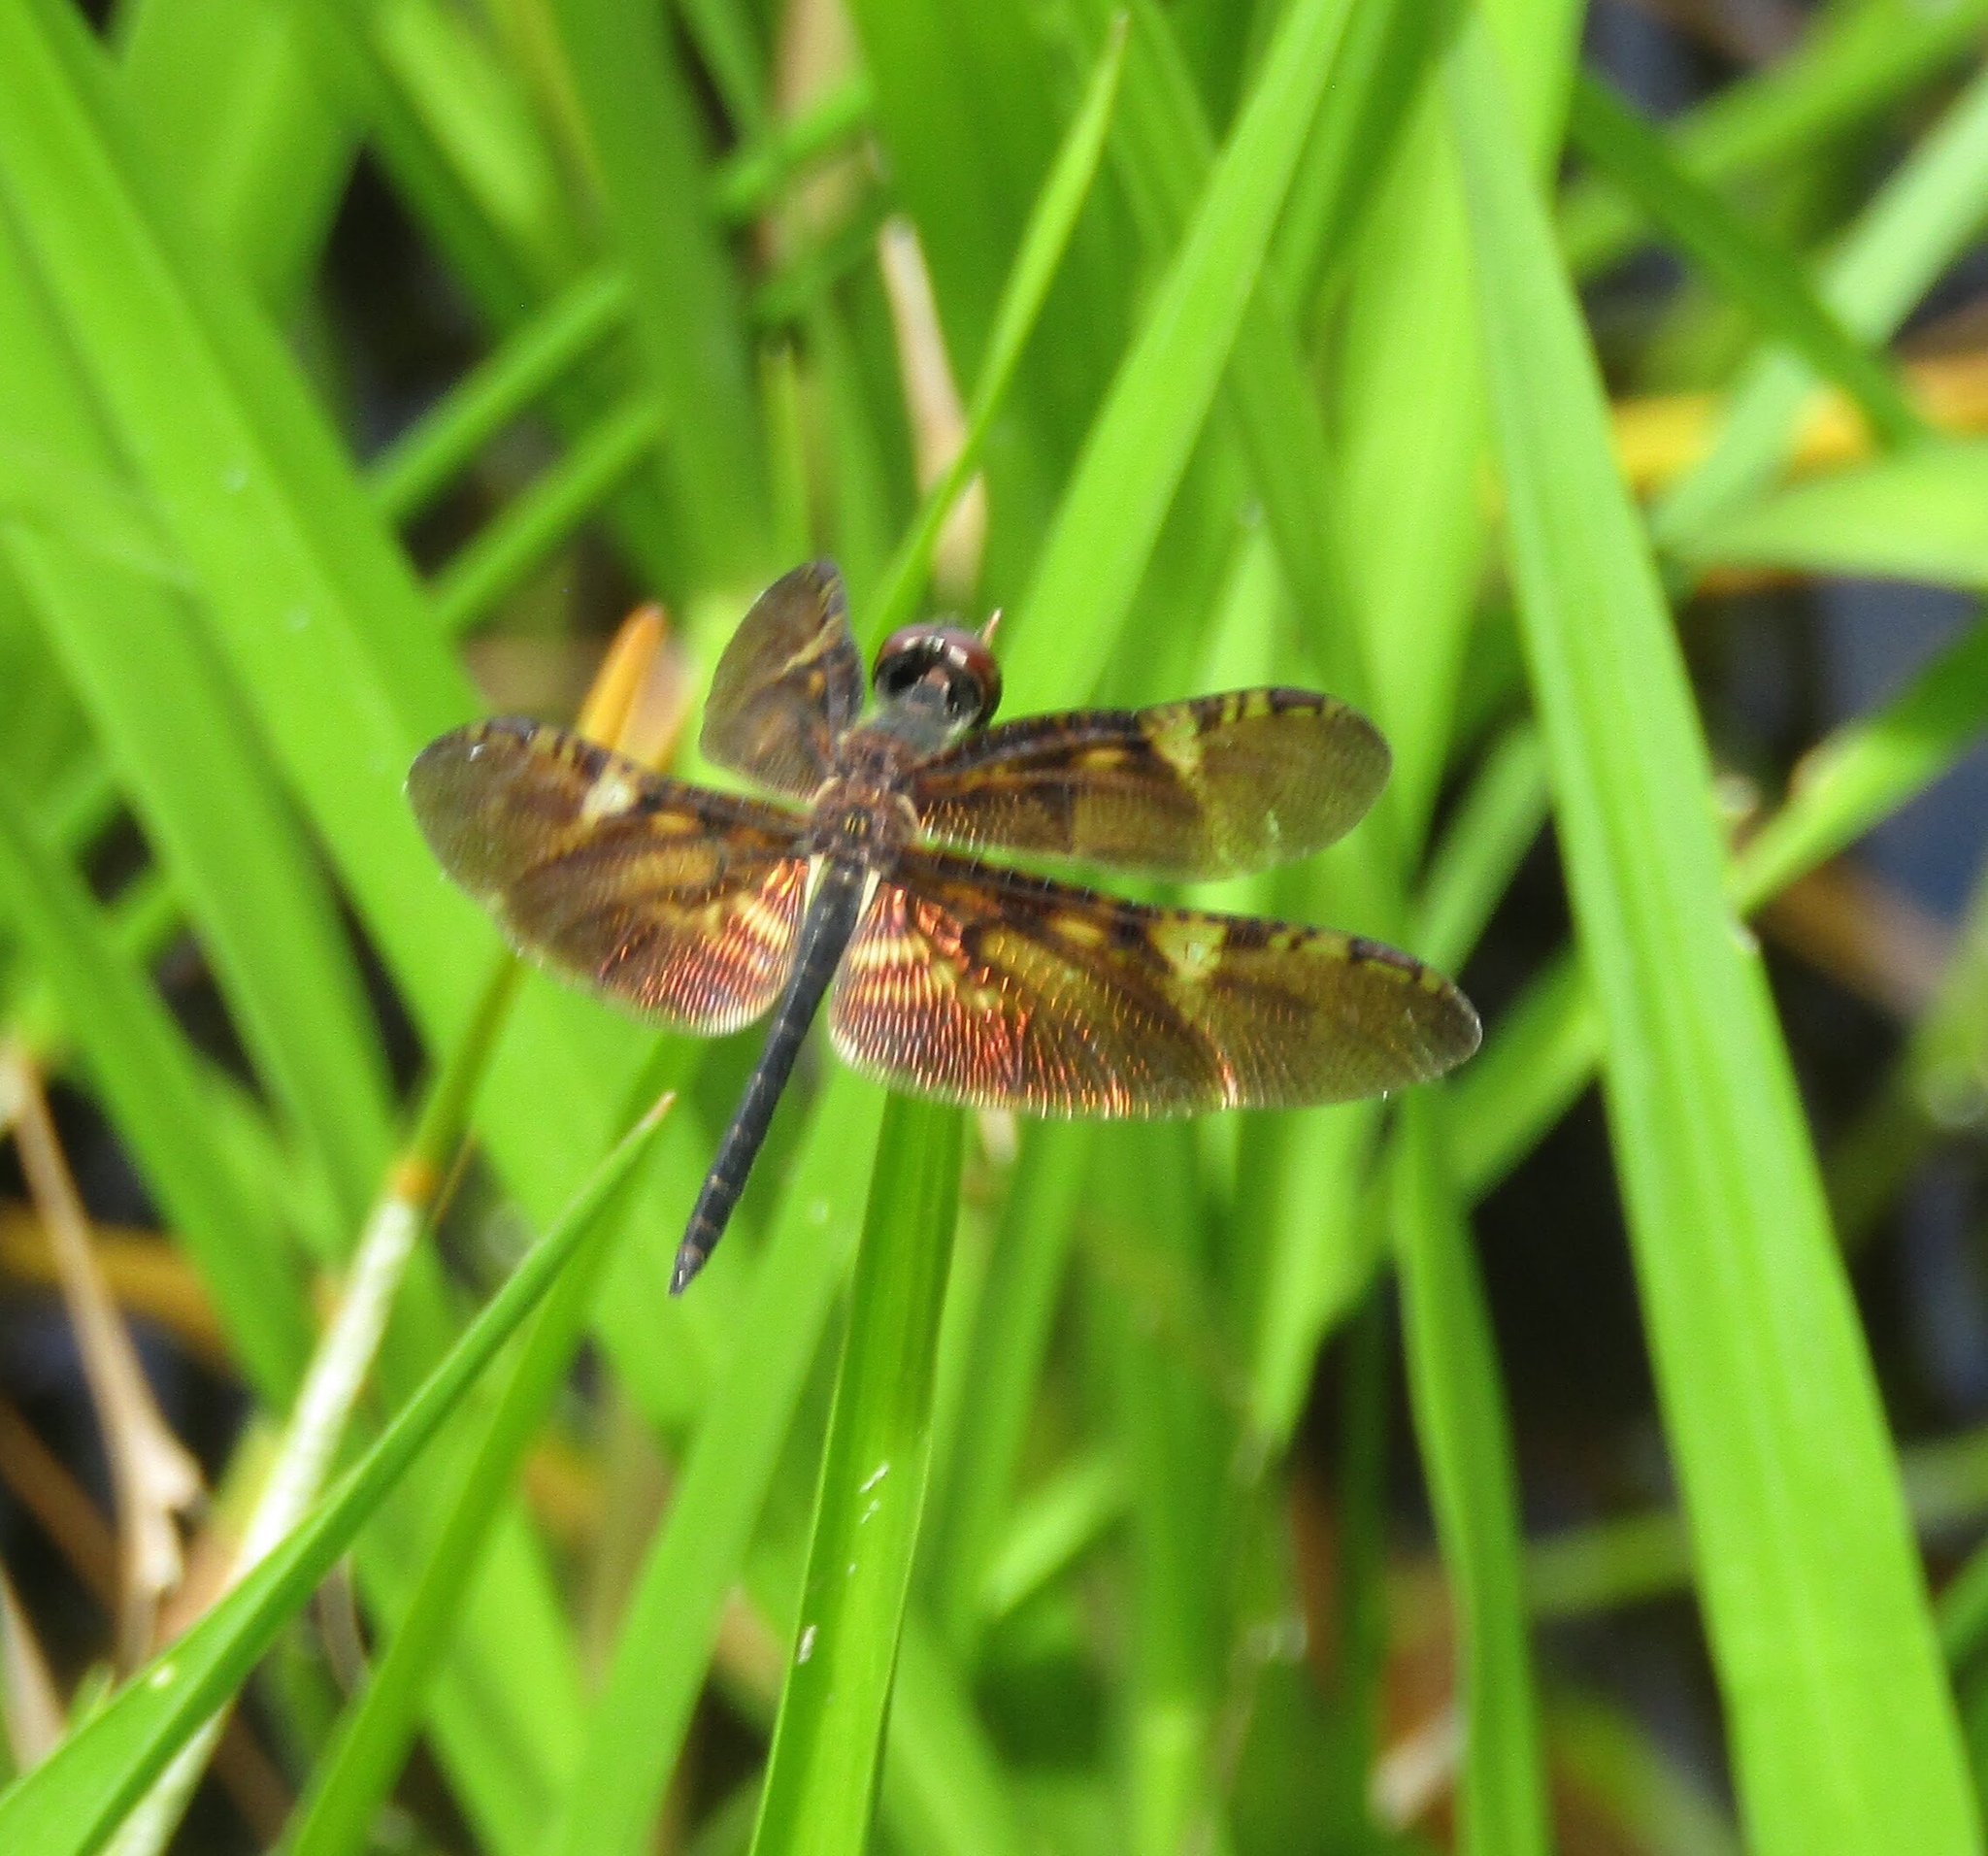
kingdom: Animalia
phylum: Arthropoda
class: Insecta
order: Odonata
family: Libellulidae
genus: Rhyothemis
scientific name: Rhyothemis obsolescens
